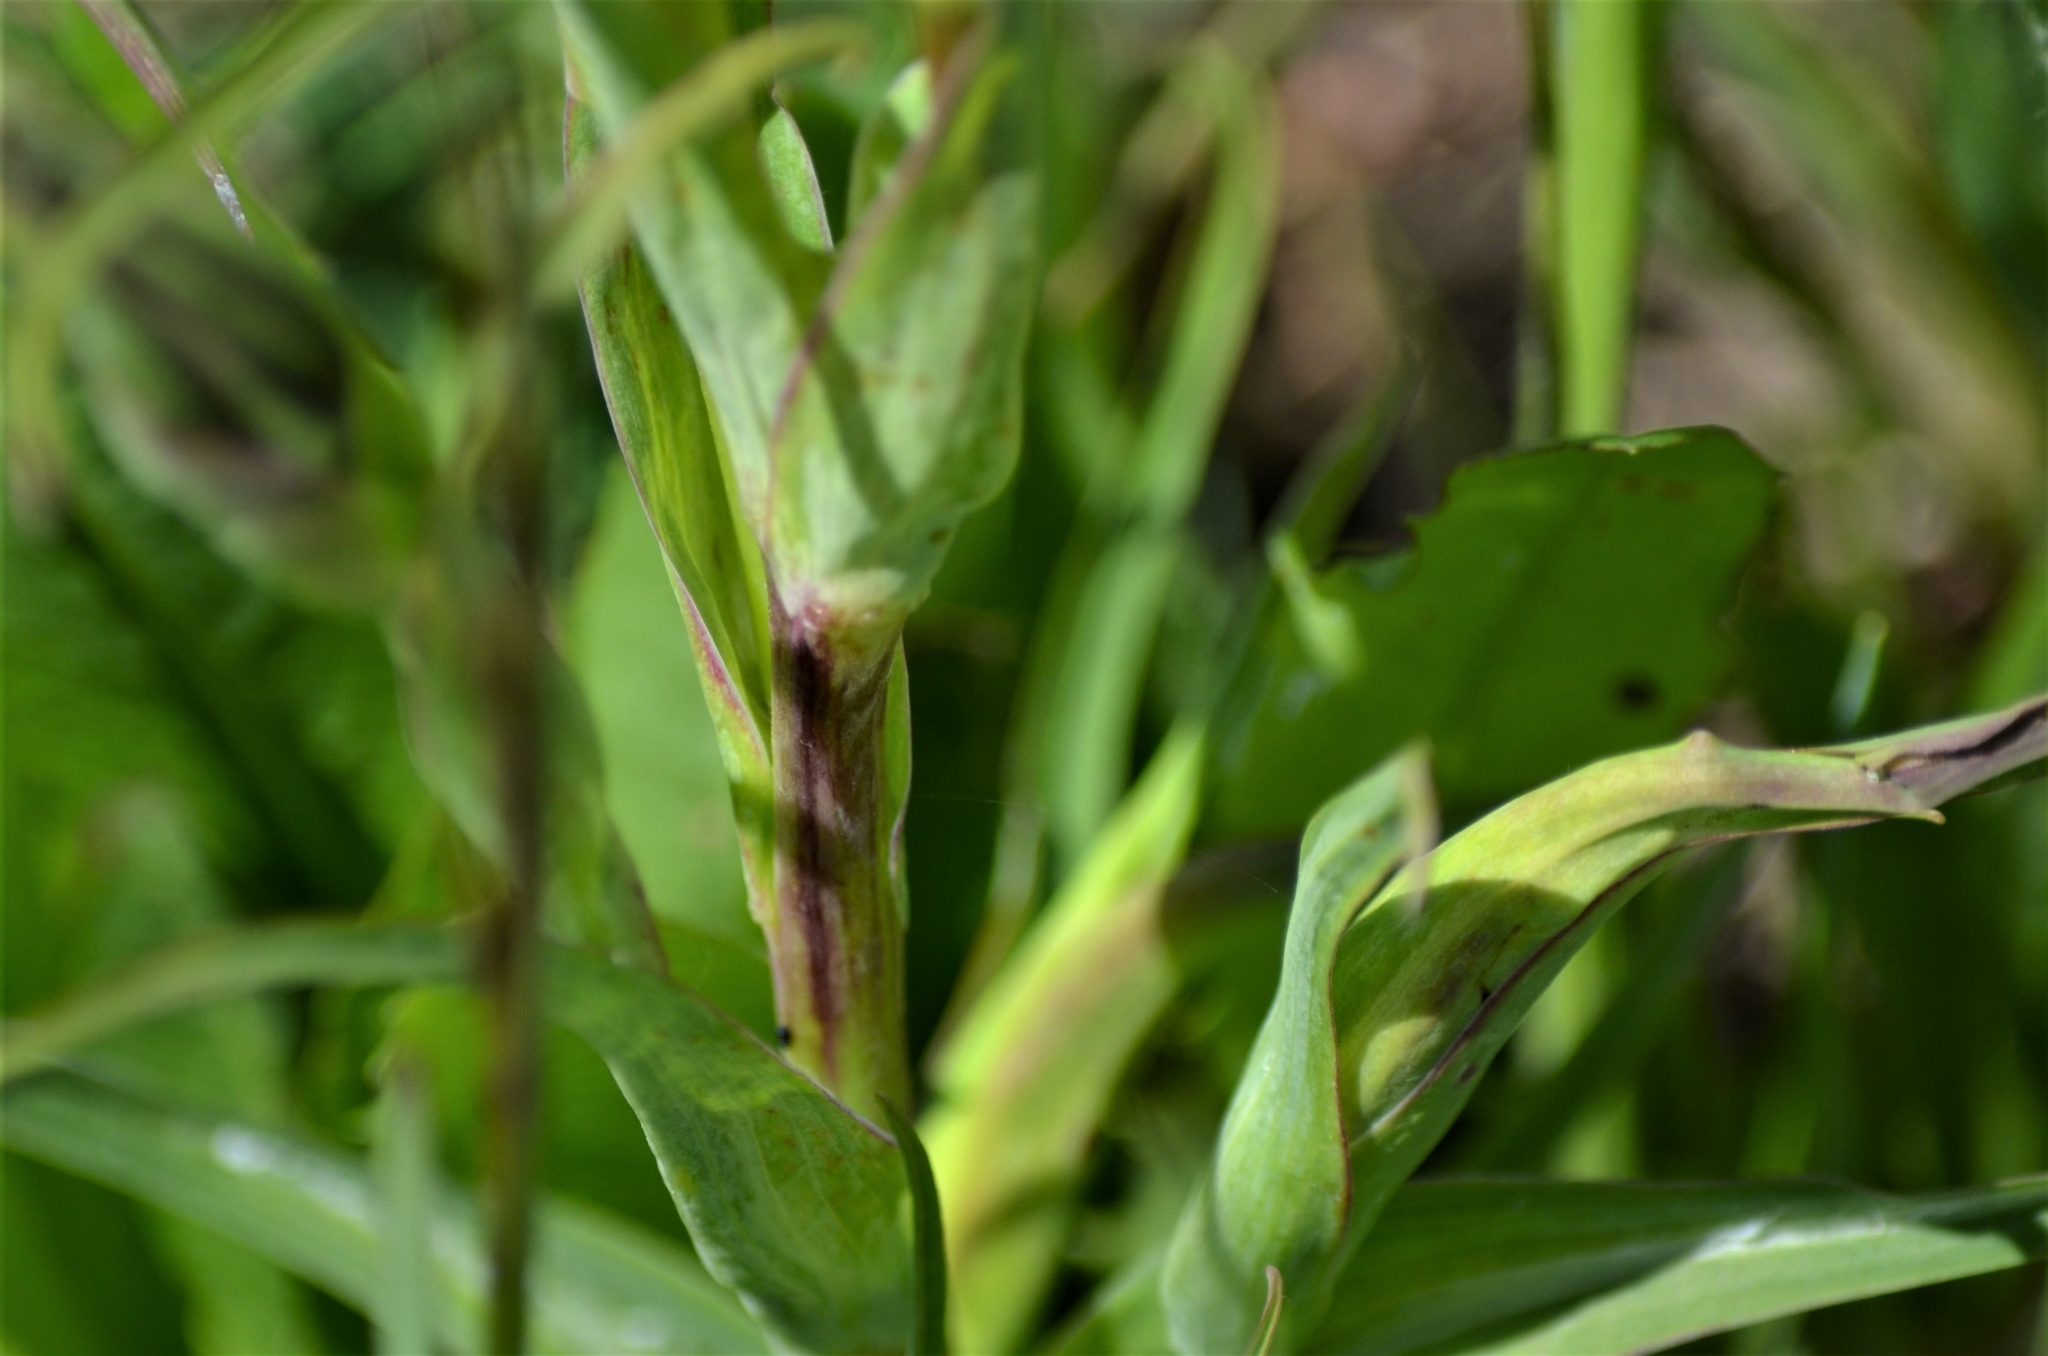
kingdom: Plantae
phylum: Tracheophyta
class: Magnoliopsida
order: Asterales
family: Asteraceae
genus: Tragopogon
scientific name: Tragopogon orientalis
